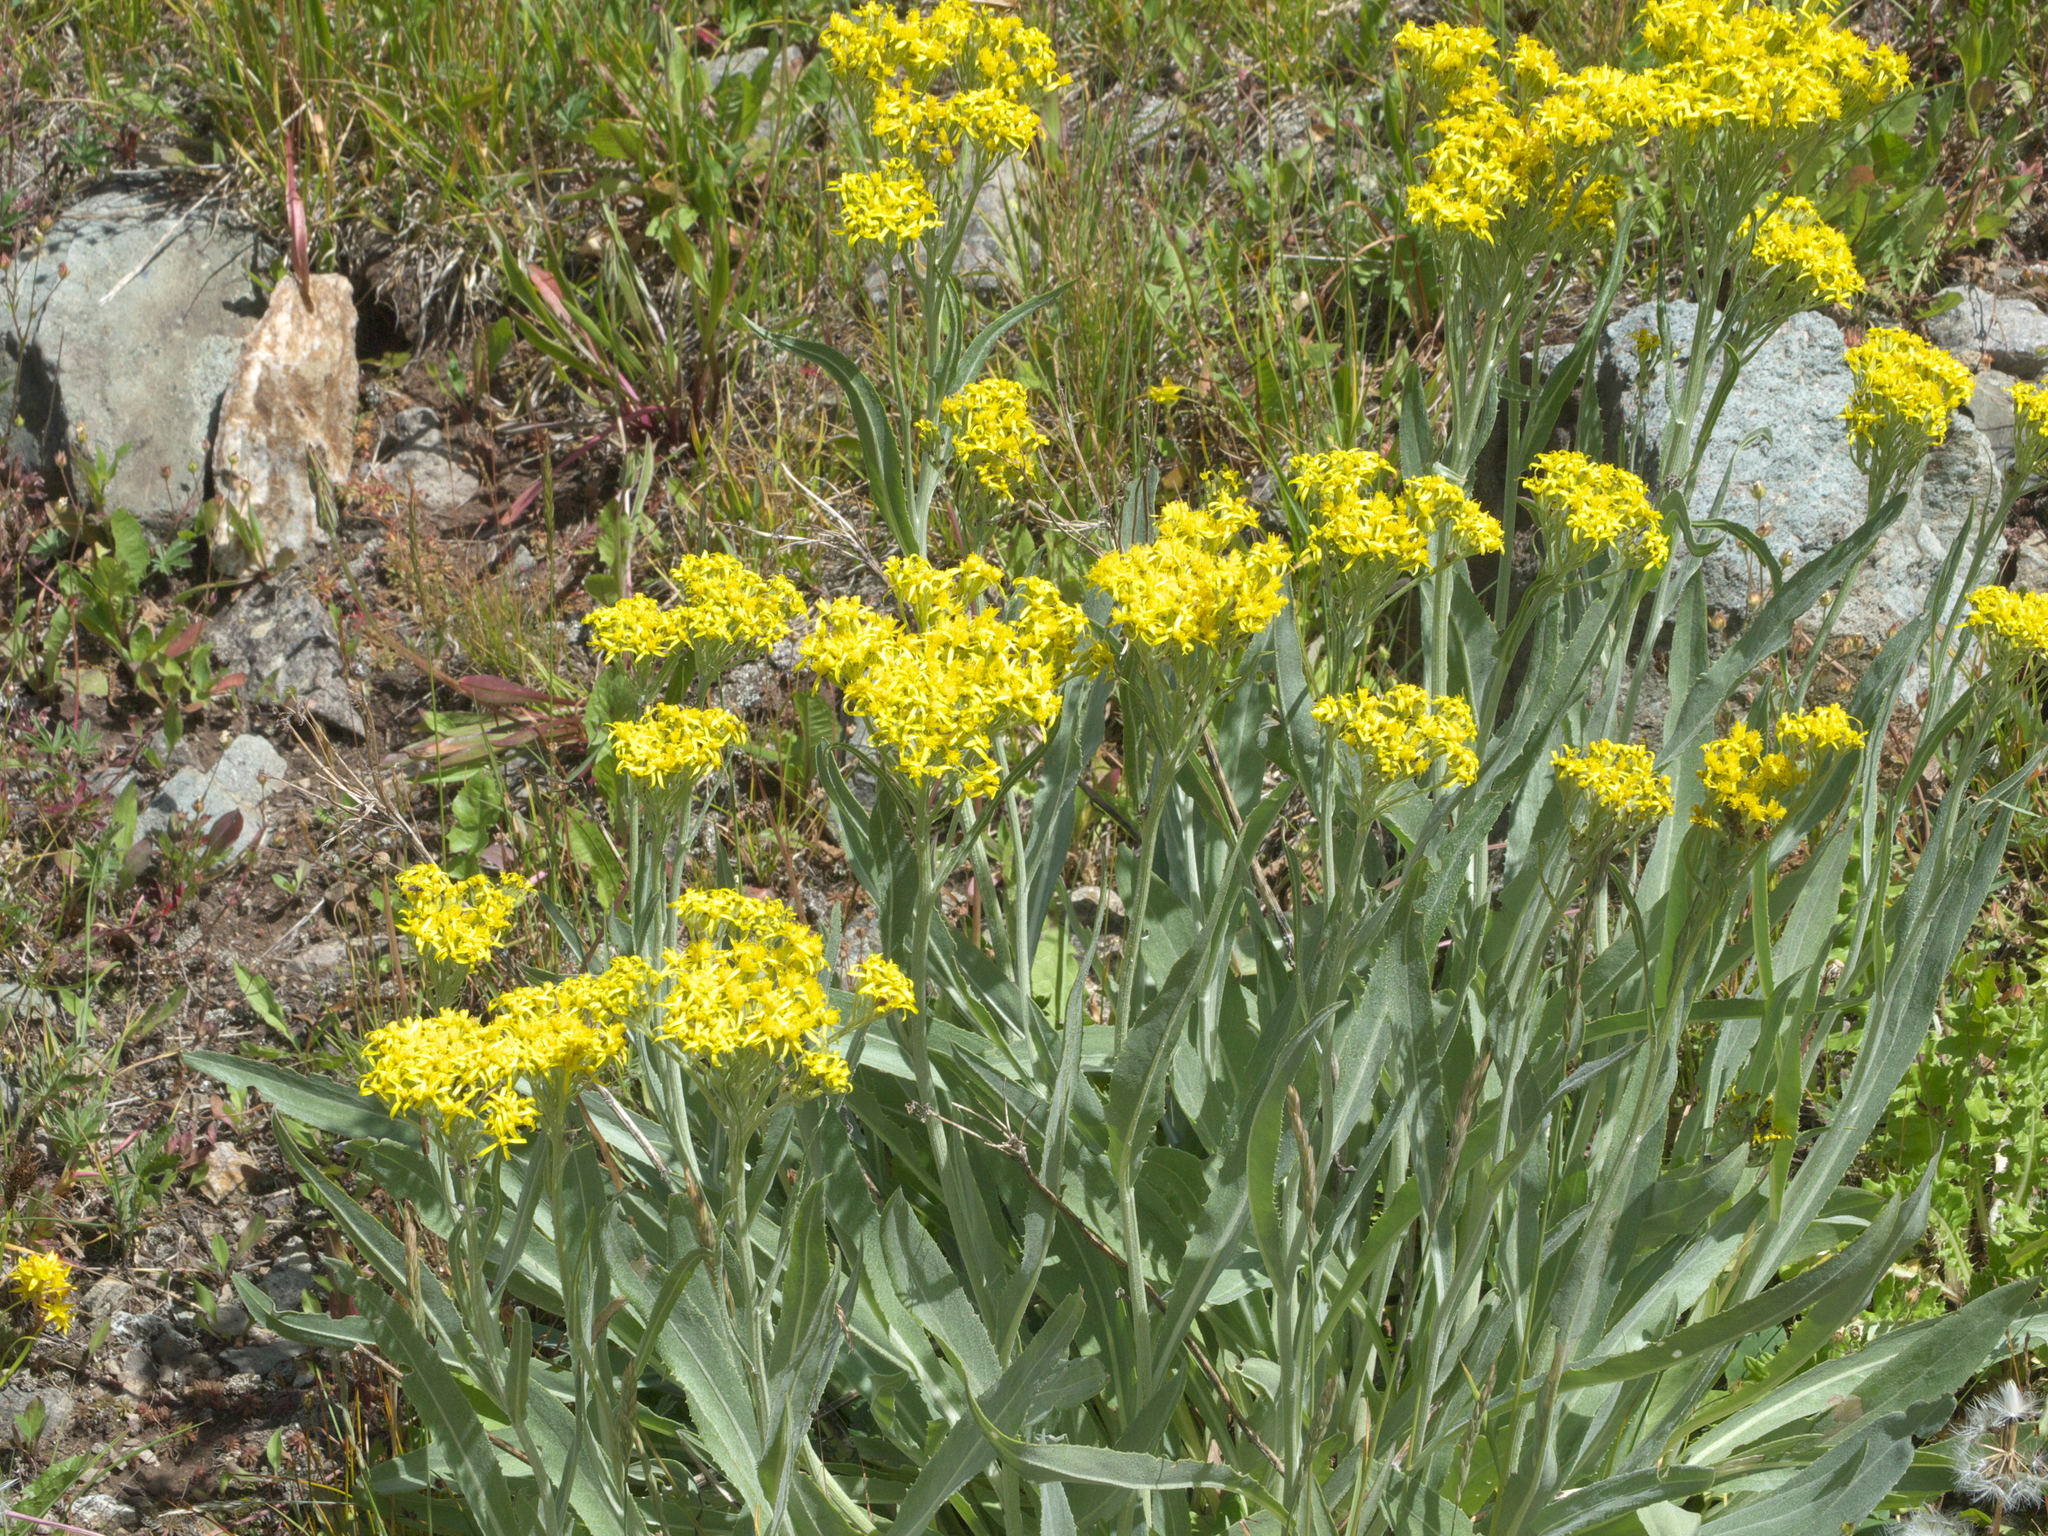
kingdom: Plantae
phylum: Tracheophyta
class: Magnoliopsida
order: Asterales
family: Asteraceae
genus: Senecio
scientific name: Senecio atratus
